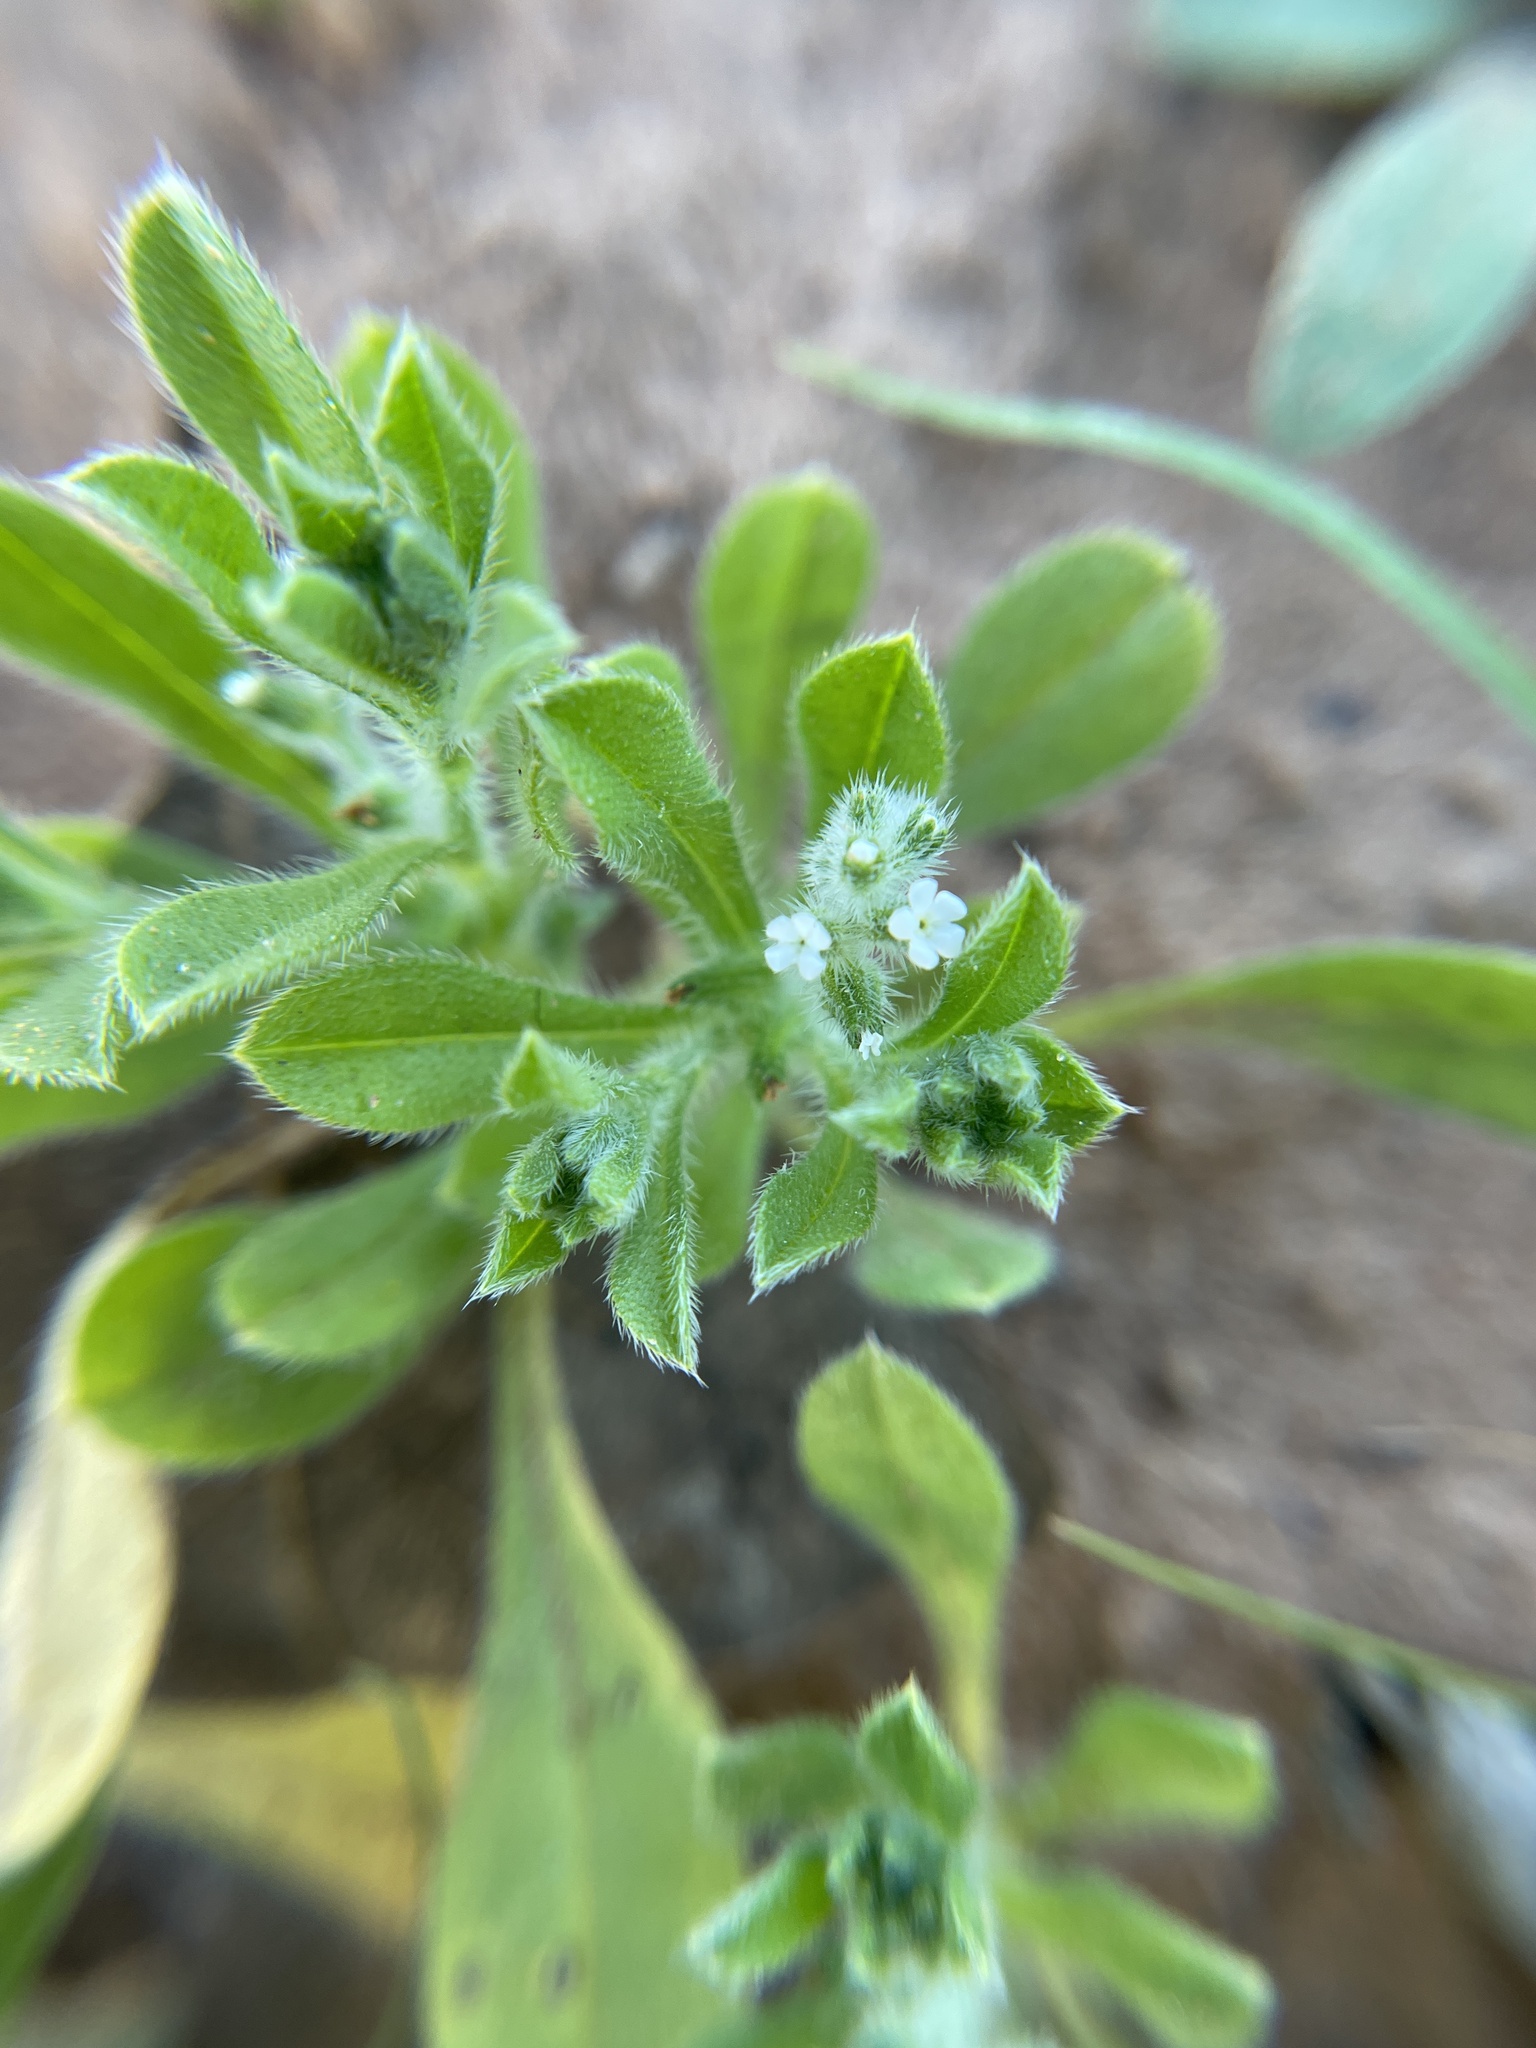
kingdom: Plantae
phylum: Tracheophyta
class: Magnoliopsida
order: Boraginales
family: Boraginaceae
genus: Cryptantha
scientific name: Cryptantha texana
